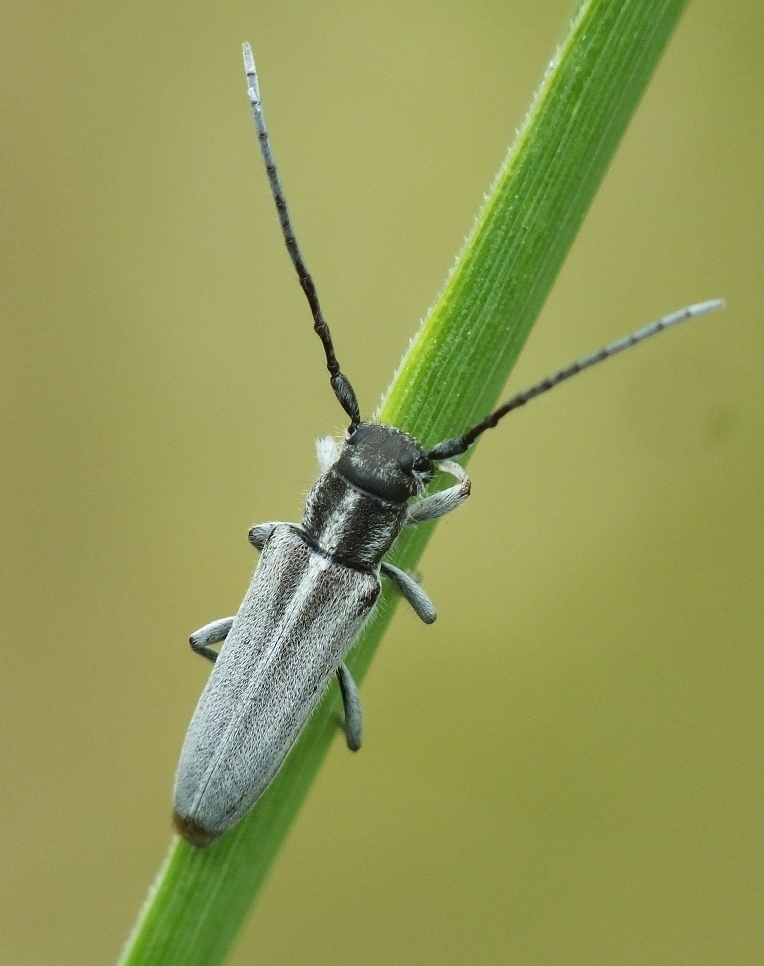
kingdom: Animalia
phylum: Arthropoda
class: Insecta
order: Coleoptera
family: Cerambycidae
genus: Phytoecia
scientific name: Phytoecia nigricornis
